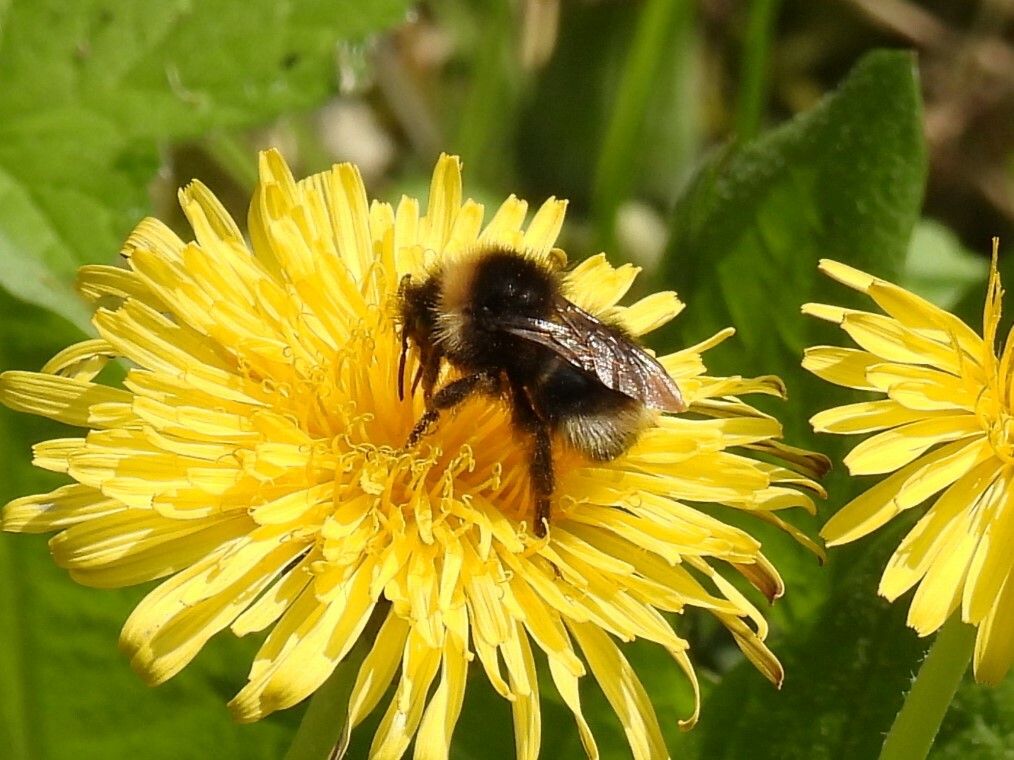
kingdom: Animalia
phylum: Arthropoda
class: Insecta
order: Hymenoptera
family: Apidae
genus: Bombus
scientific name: Bombus sylvestris
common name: Forest cuckoo bee
